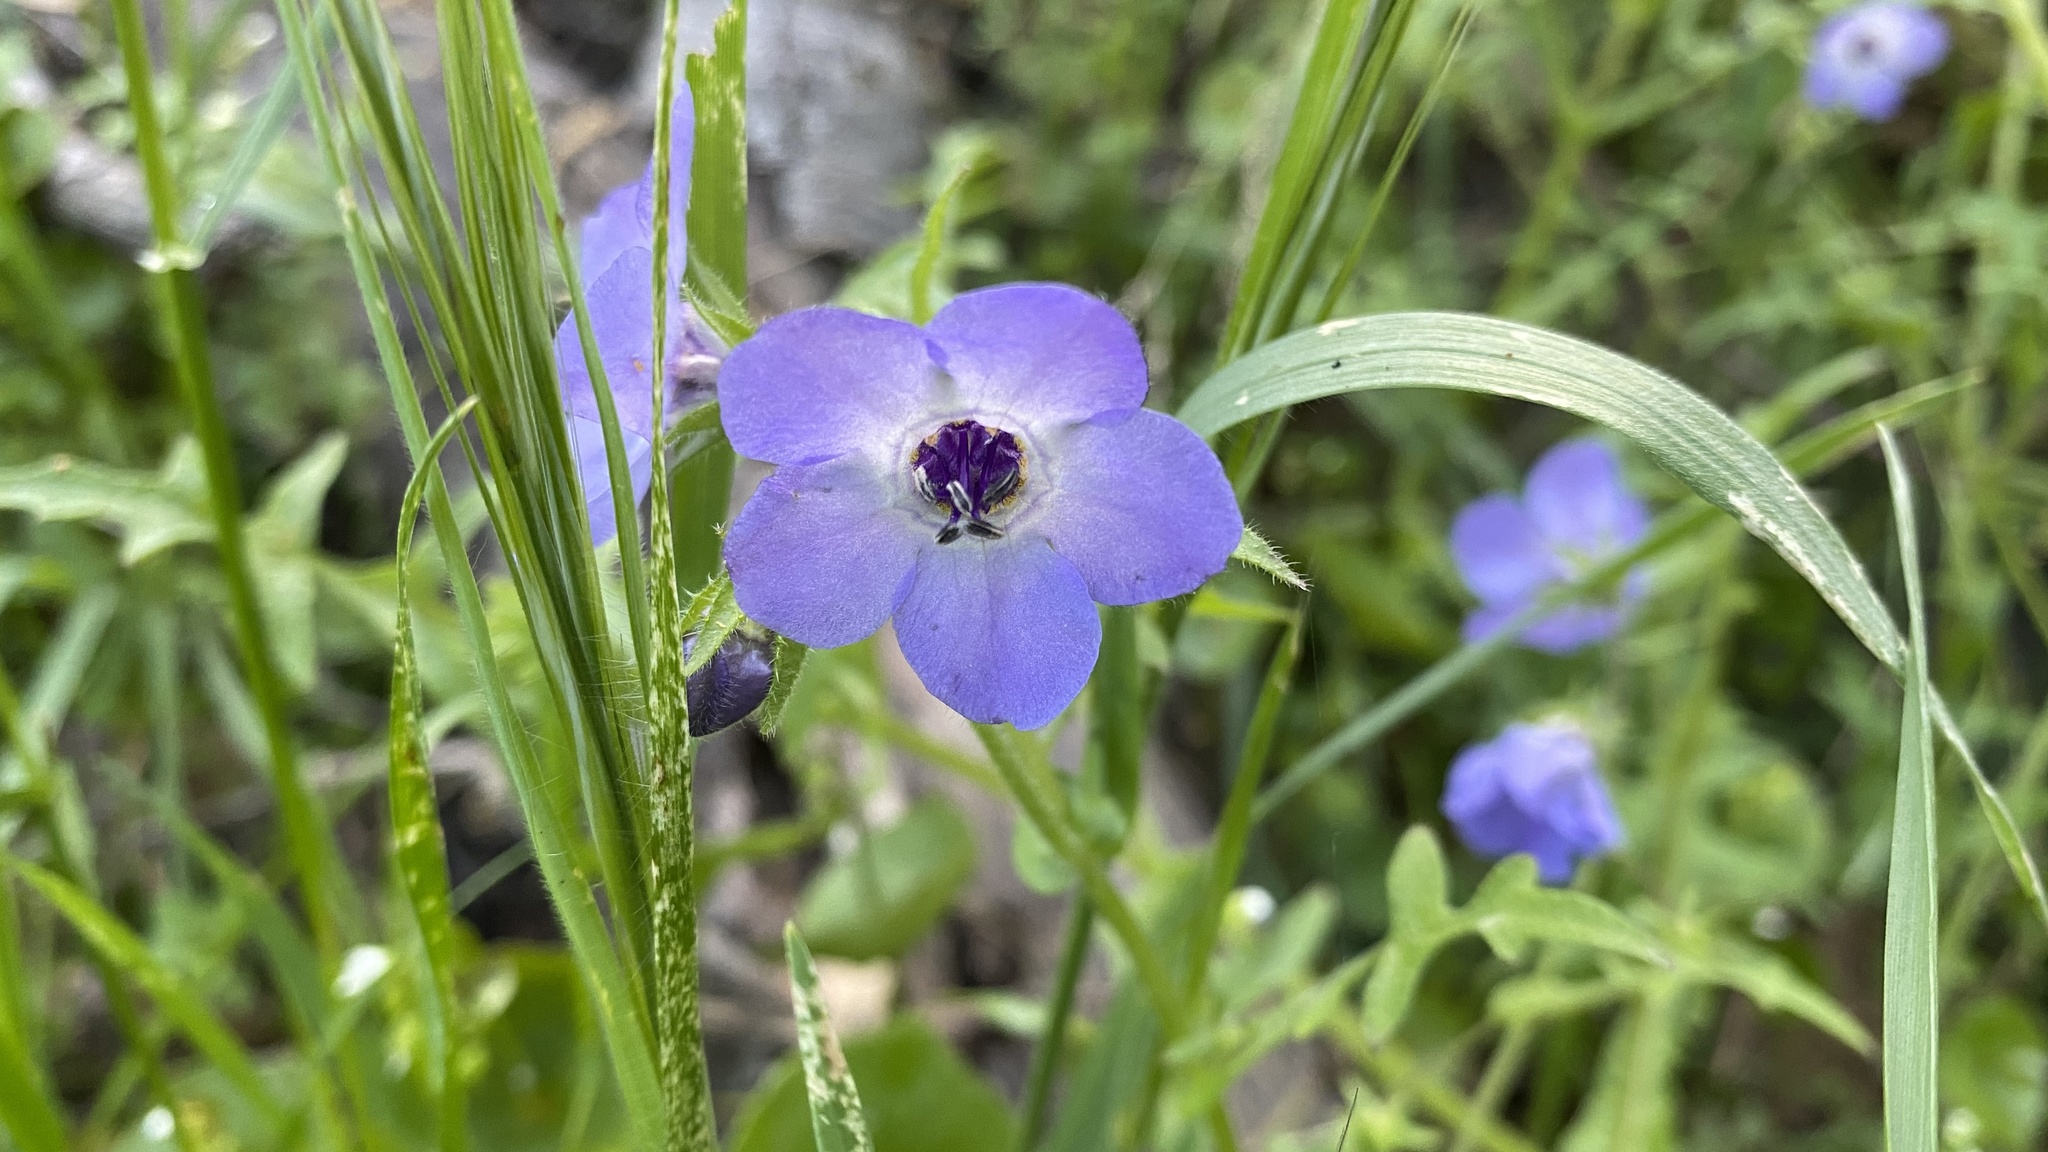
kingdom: Plantae
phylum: Tracheophyta
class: Magnoliopsida
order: Boraginales
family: Hydrophyllaceae
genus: Pholistoma
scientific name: Pholistoma auritum
